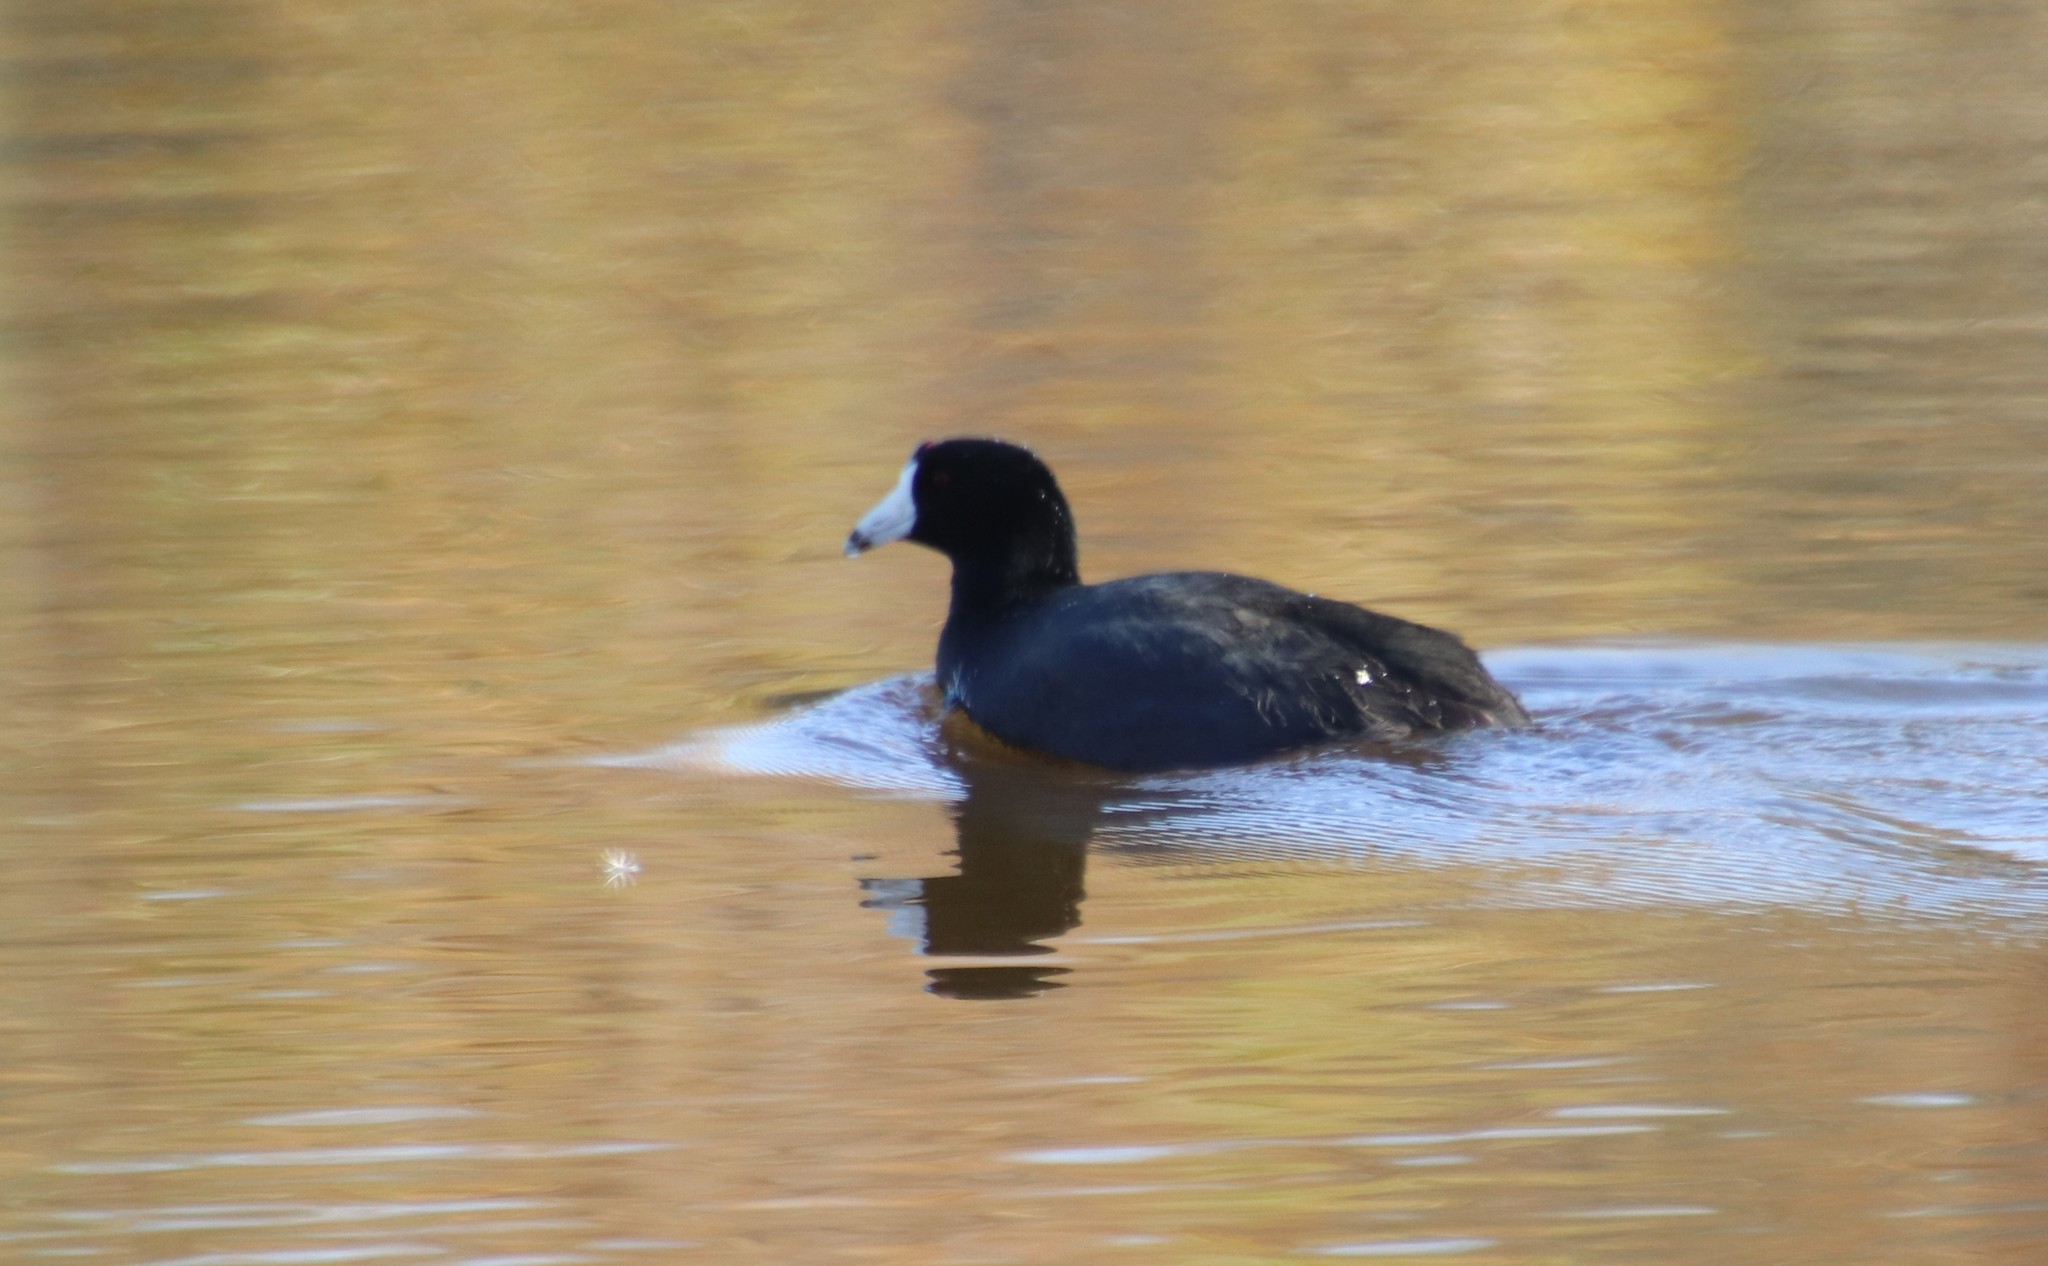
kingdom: Animalia
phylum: Chordata
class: Aves
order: Gruiformes
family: Rallidae
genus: Fulica
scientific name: Fulica americana
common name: American coot
